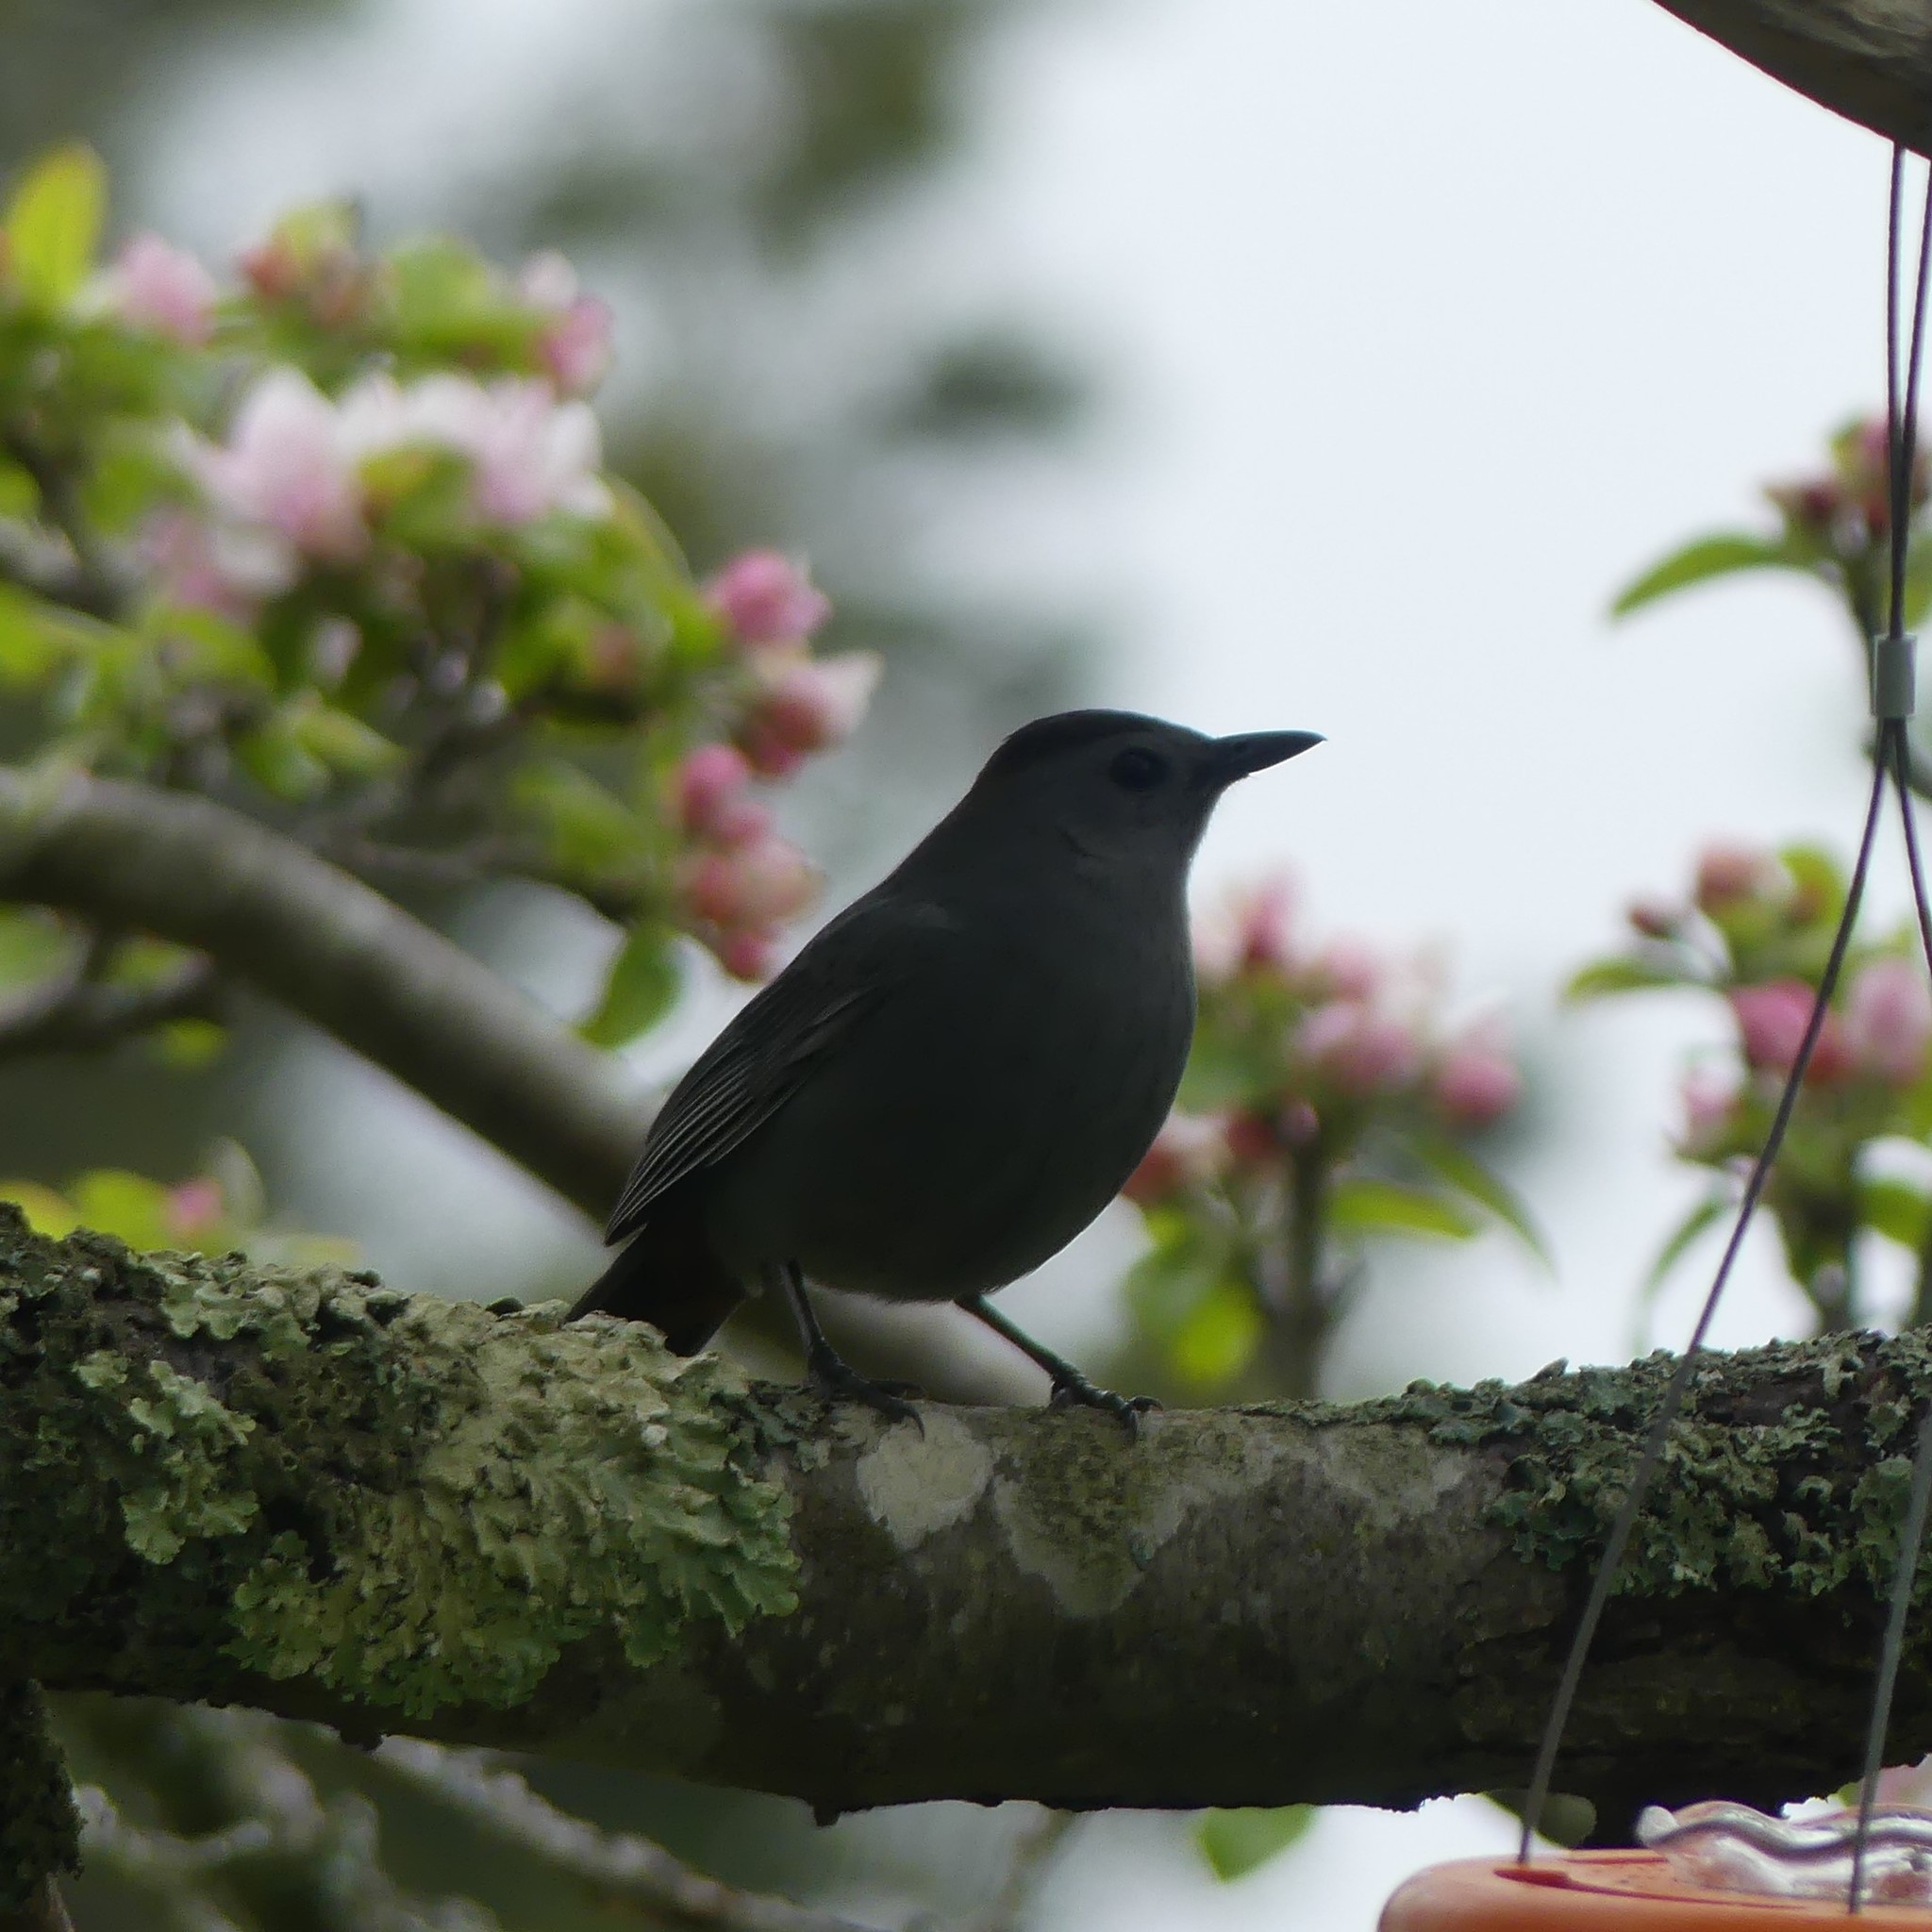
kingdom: Animalia
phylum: Chordata
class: Aves
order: Passeriformes
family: Mimidae
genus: Dumetella
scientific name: Dumetella carolinensis
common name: Gray catbird
